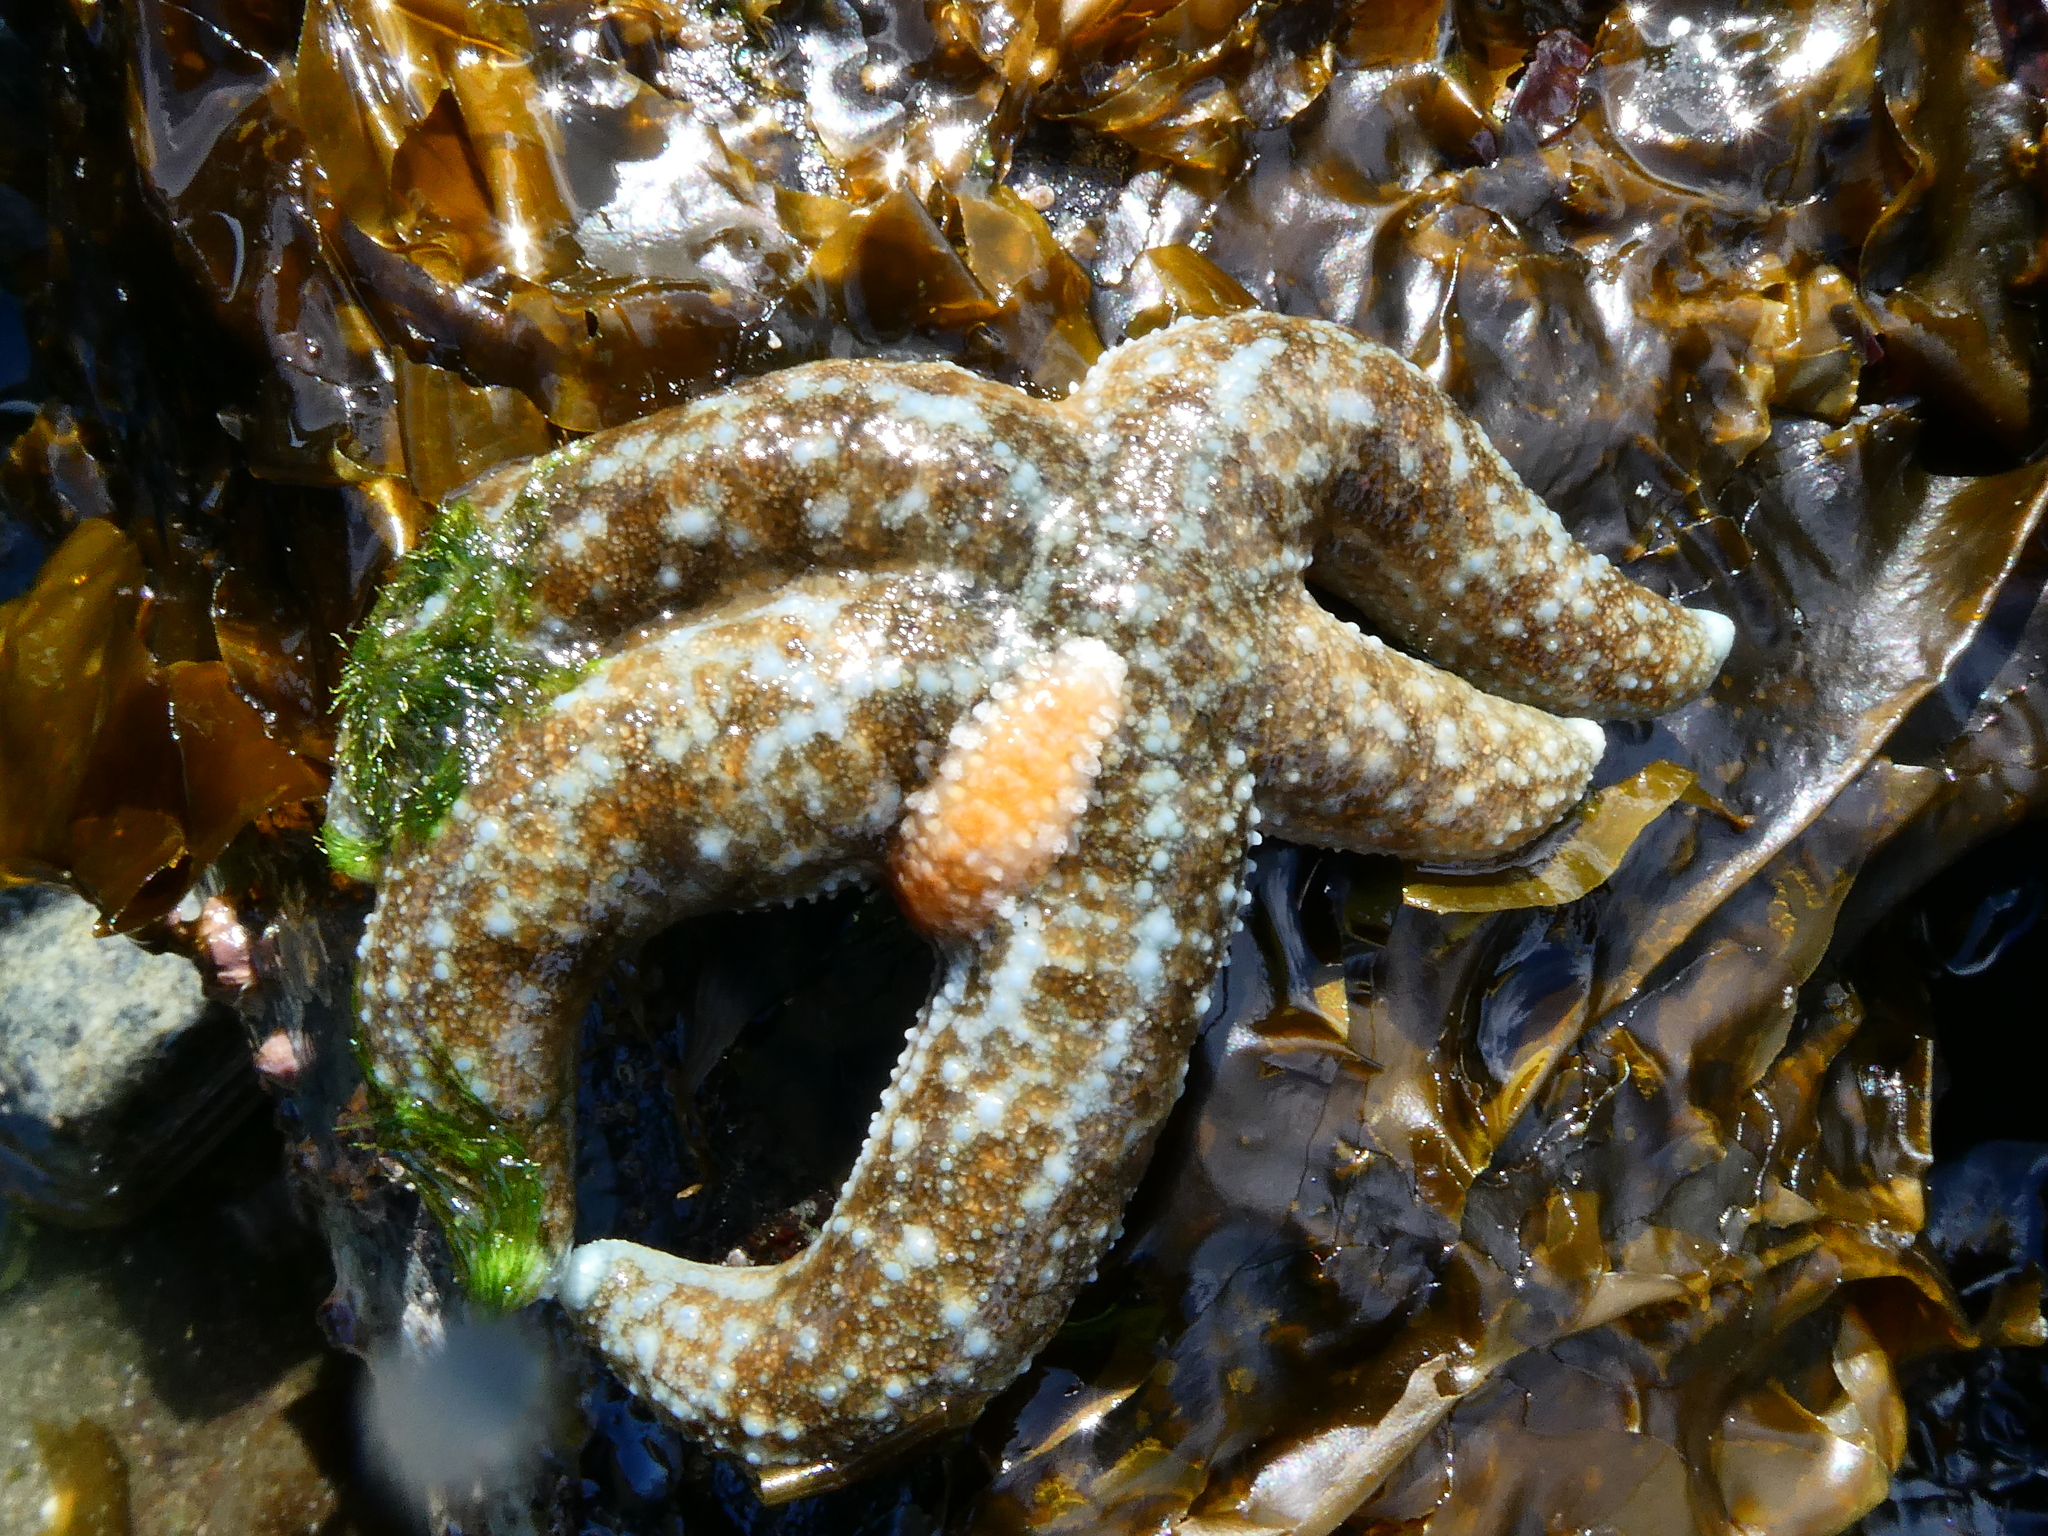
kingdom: Animalia
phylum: Echinodermata
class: Asteroidea
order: Forcipulatida
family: Asteriidae
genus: Evasterias
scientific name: Evasterias troschelii
